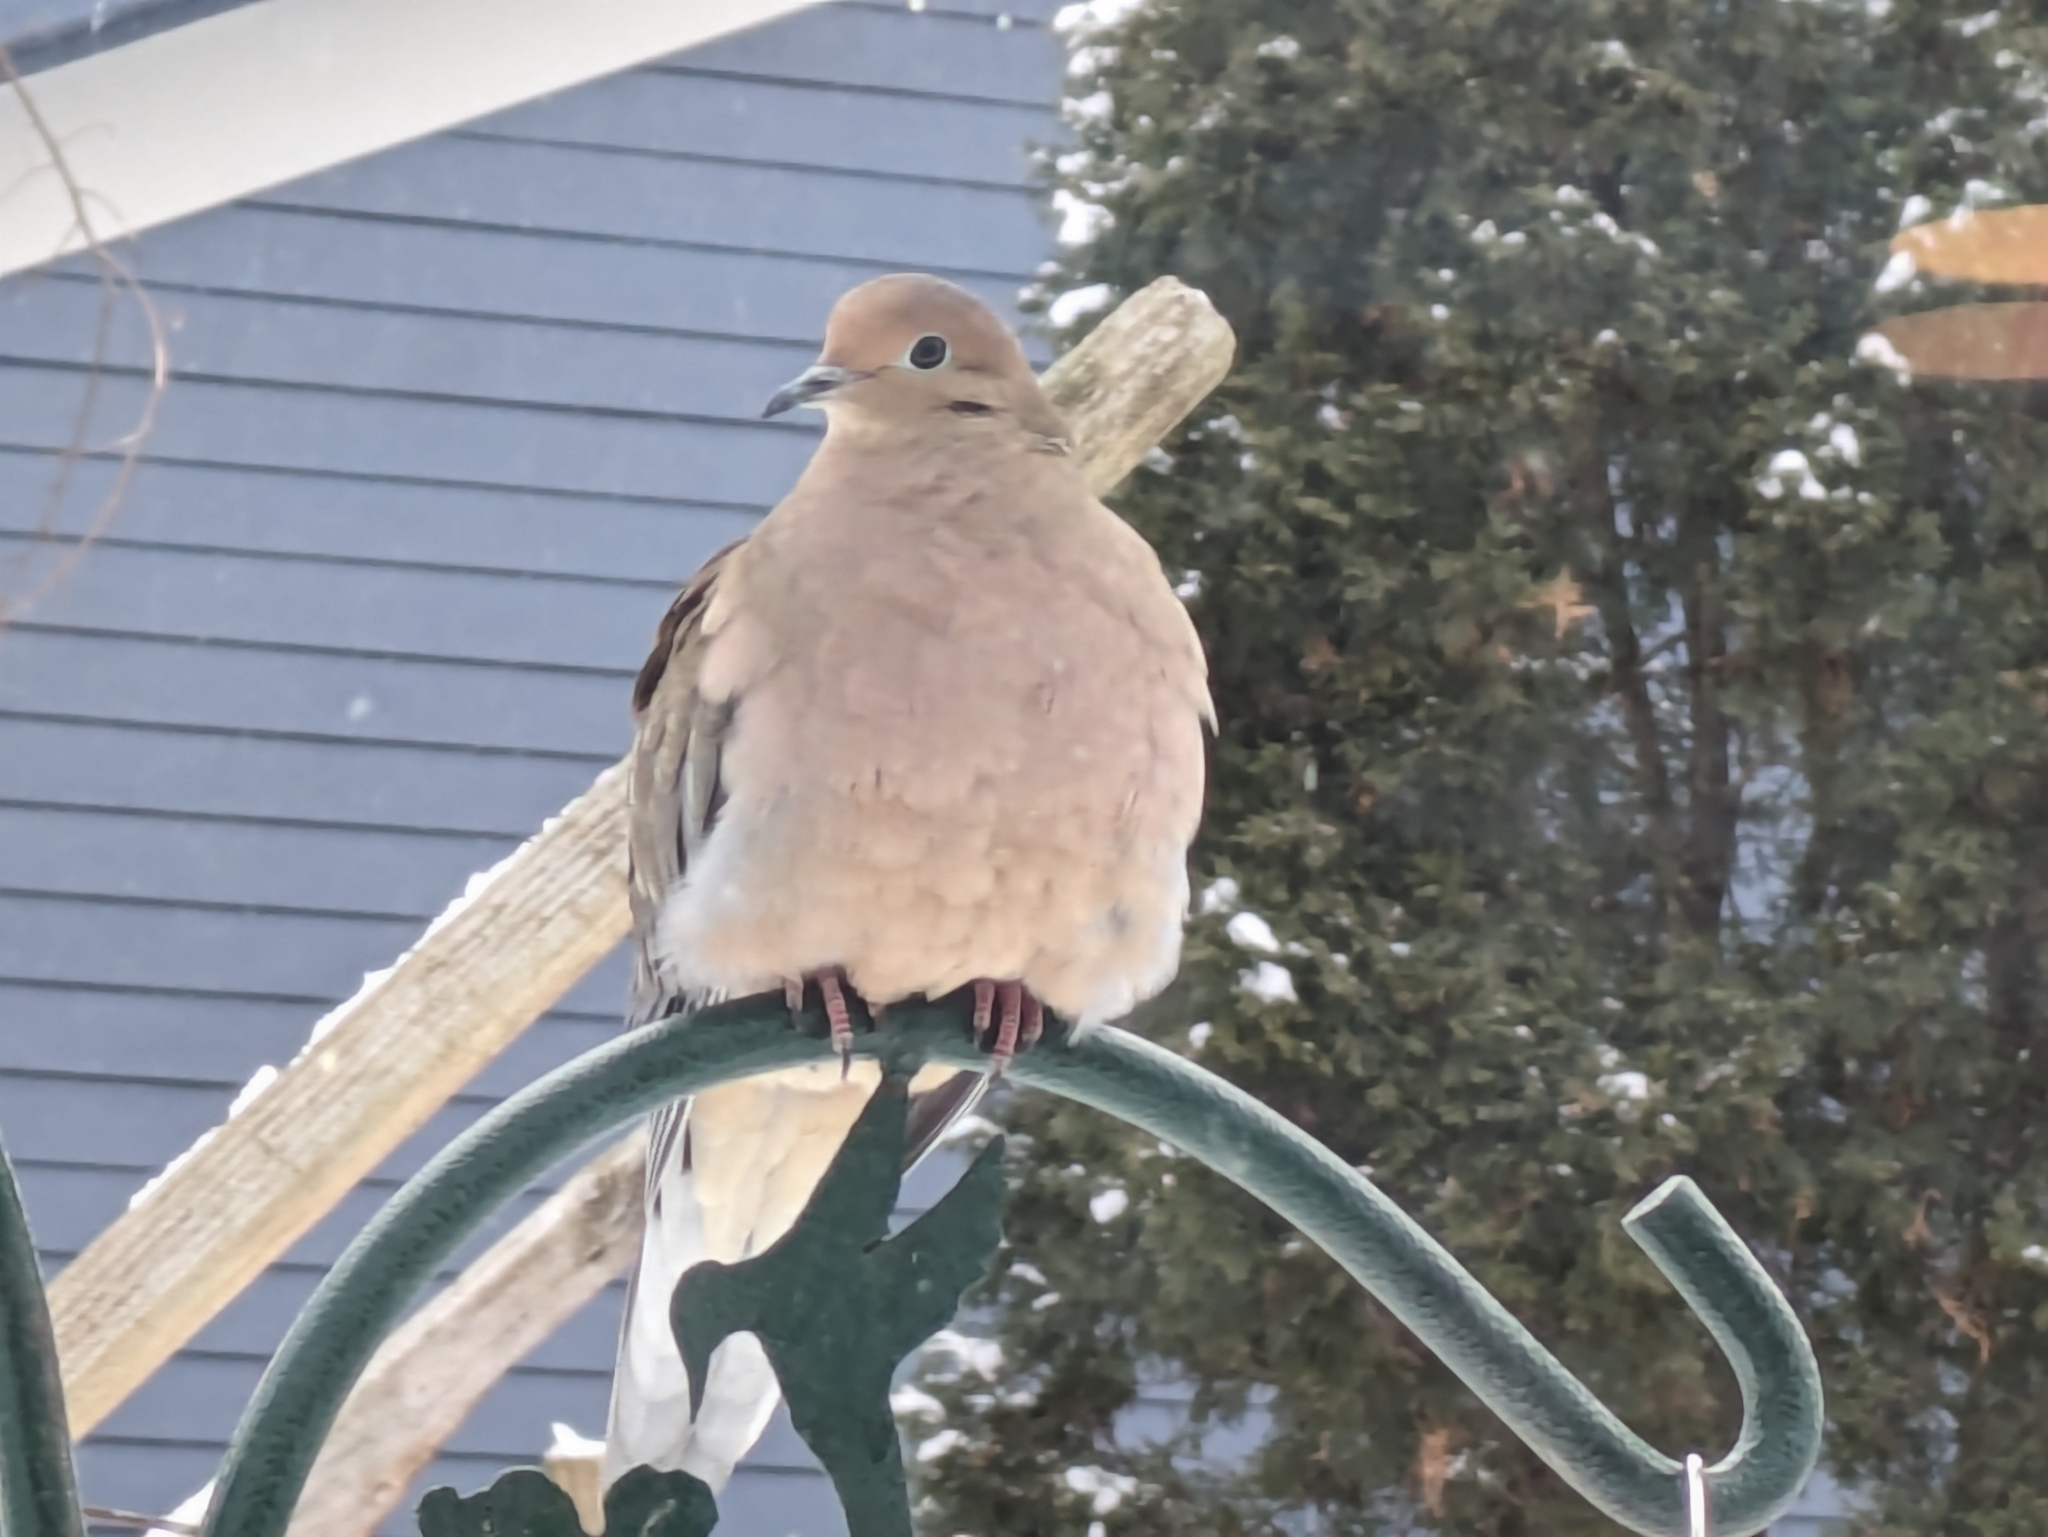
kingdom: Animalia
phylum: Chordata
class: Aves
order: Columbiformes
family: Columbidae
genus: Zenaida
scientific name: Zenaida macroura
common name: Mourning dove
